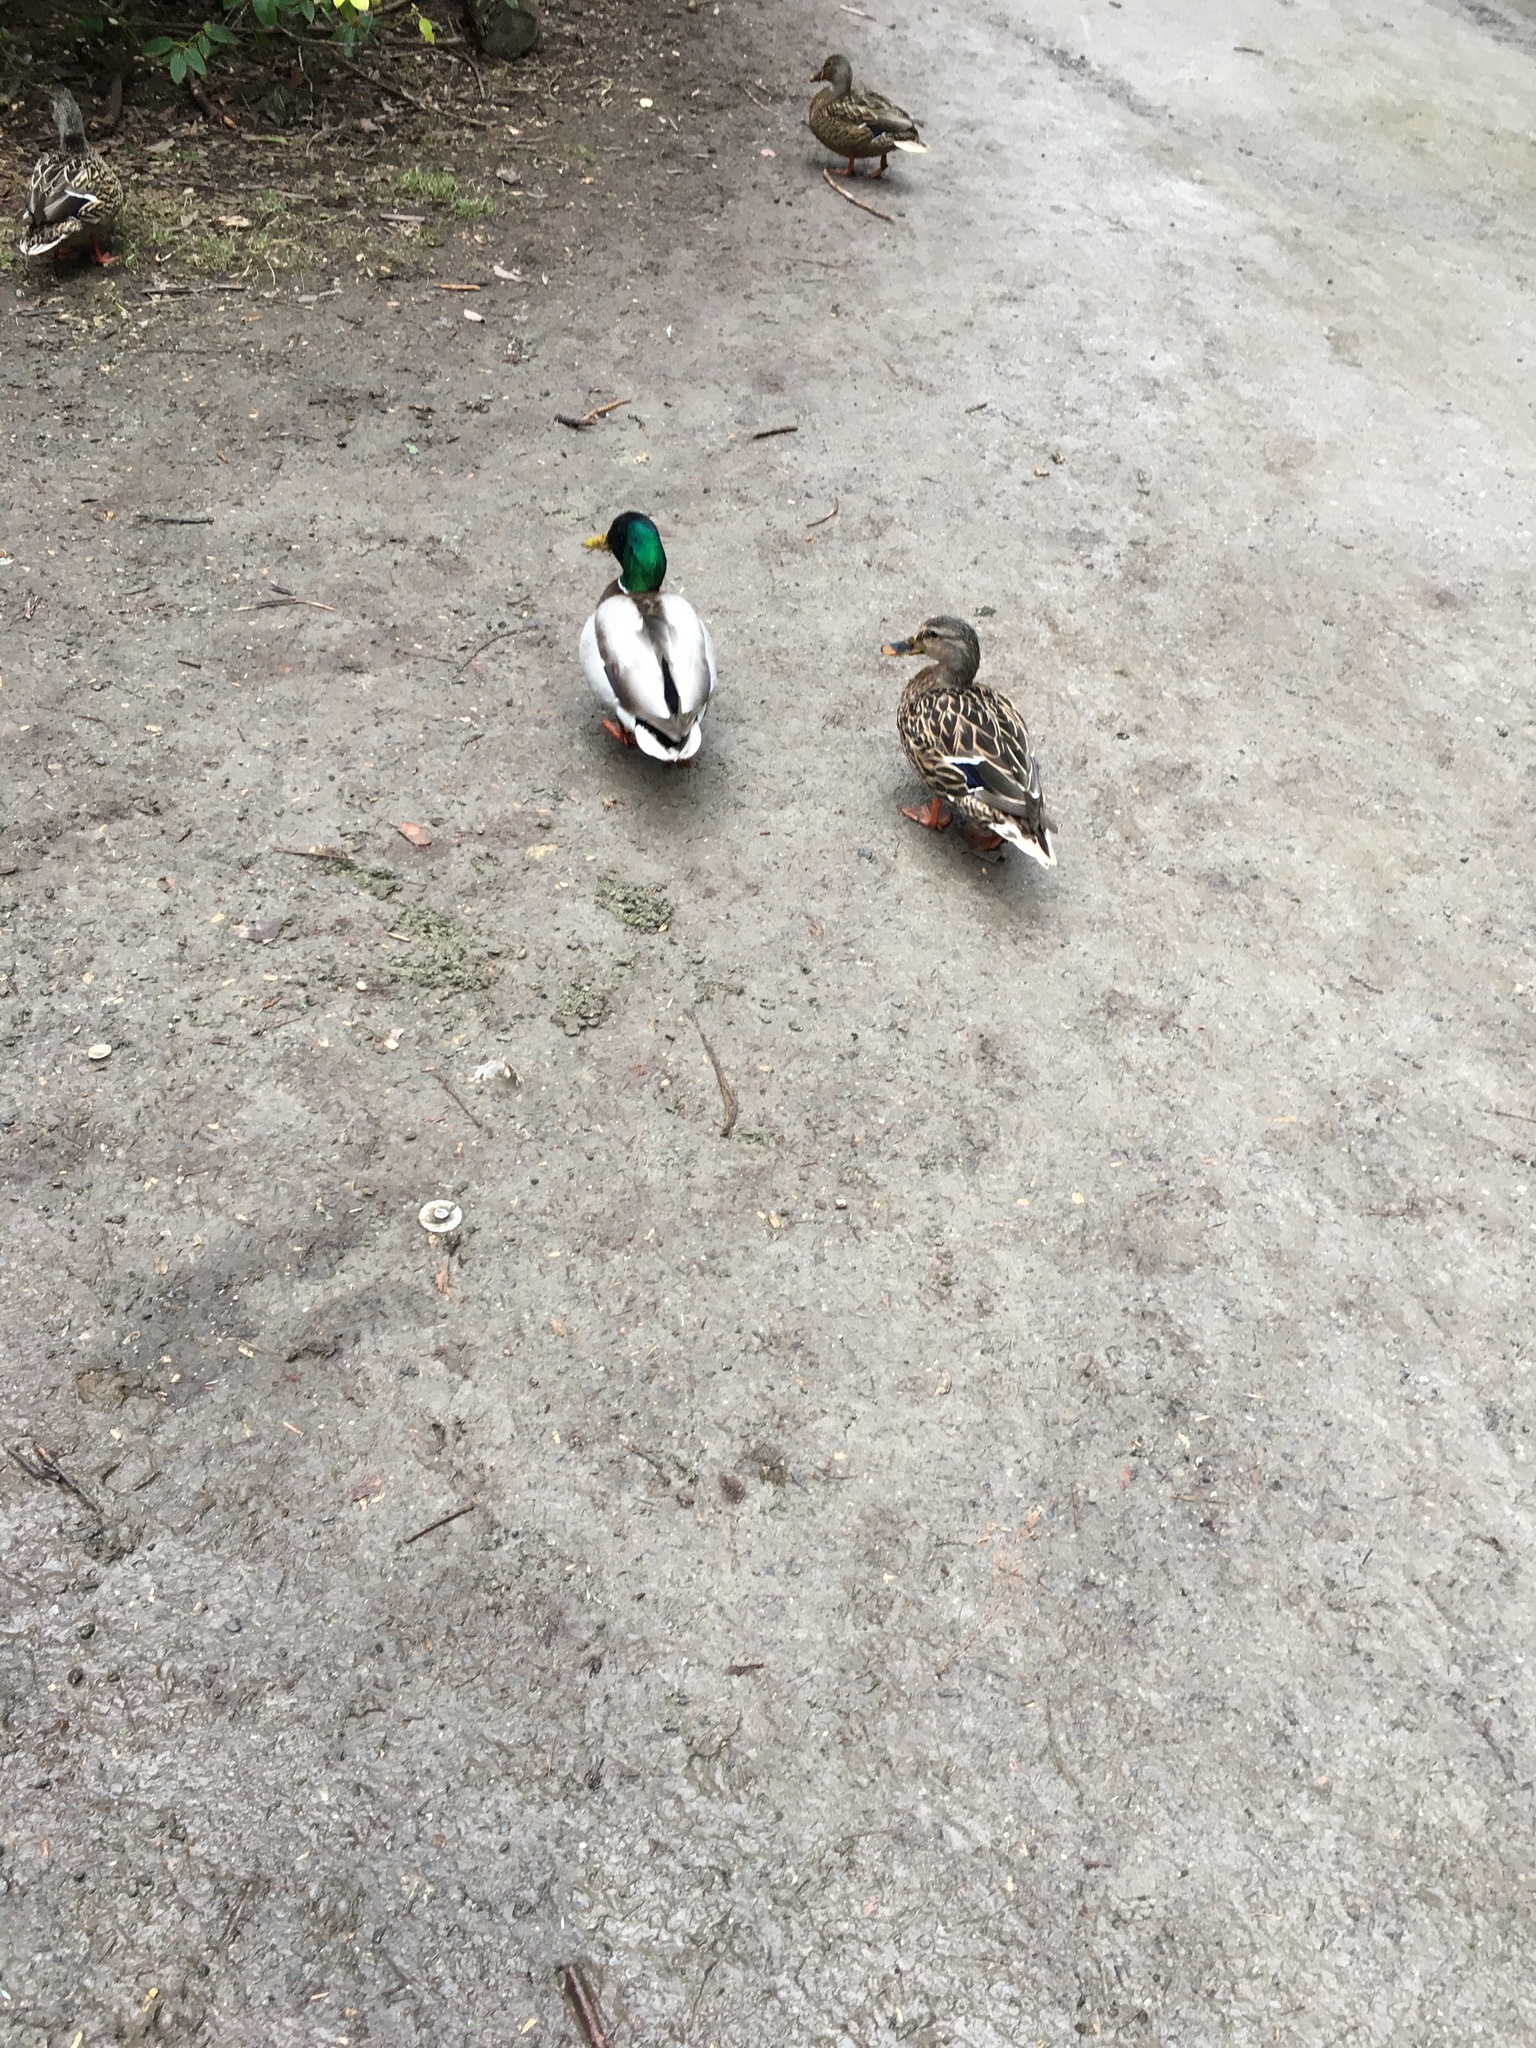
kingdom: Animalia
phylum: Chordata
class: Aves
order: Anseriformes
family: Anatidae
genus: Anas
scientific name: Anas platyrhynchos
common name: Mallard
